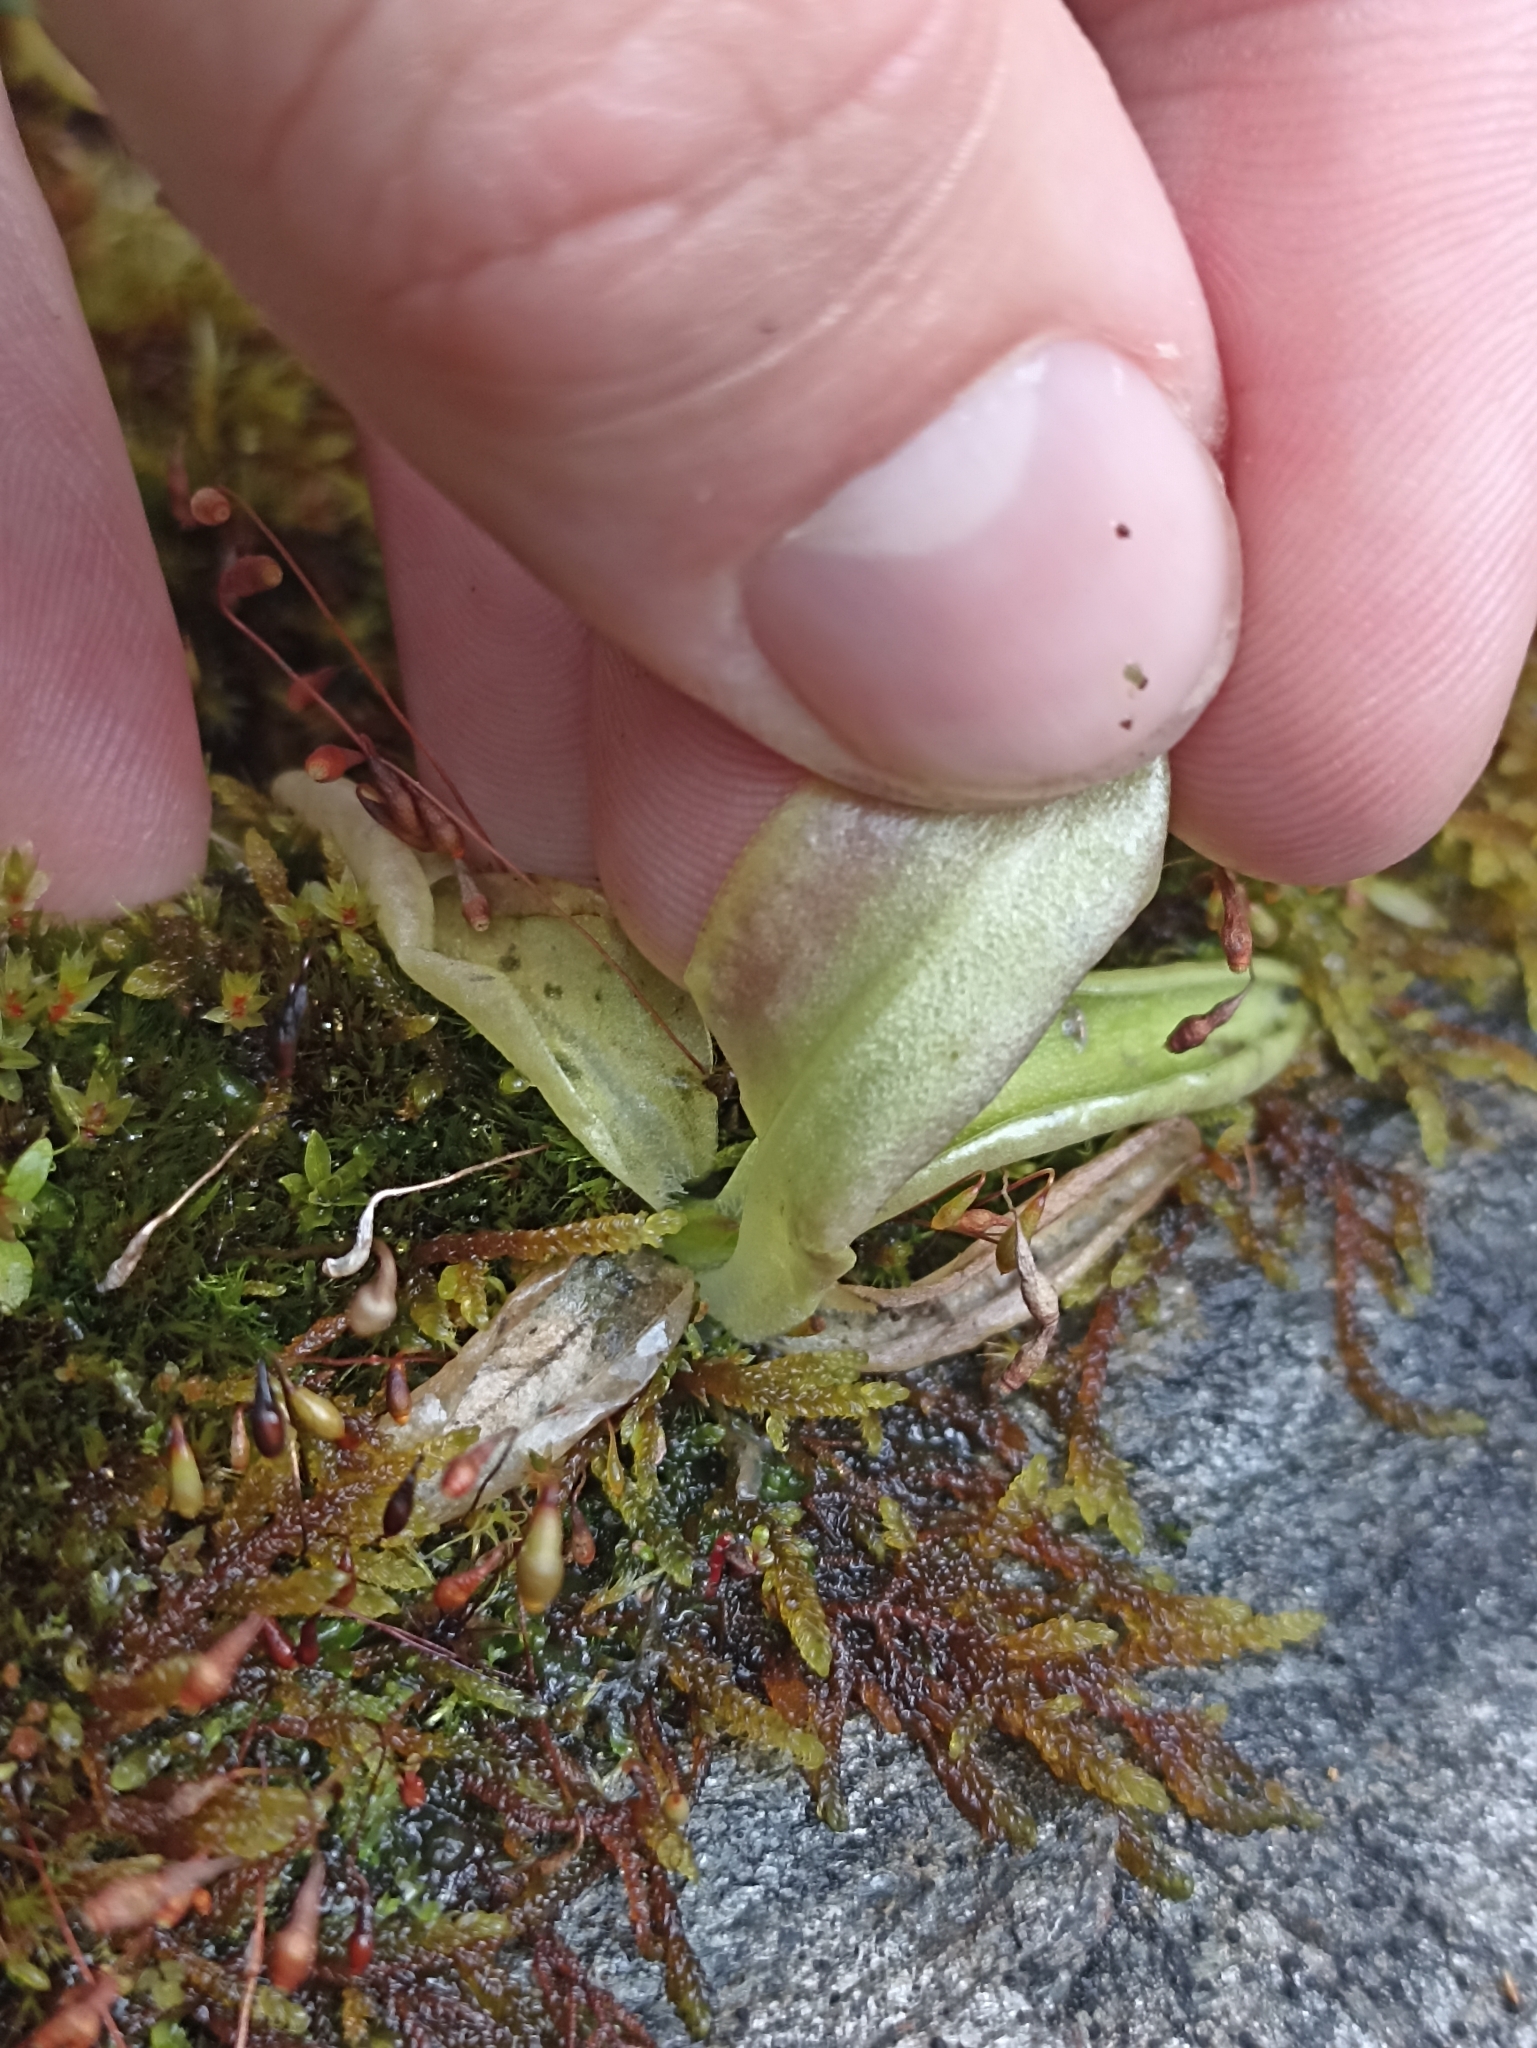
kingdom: Plantae
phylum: Tracheophyta
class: Magnoliopsida
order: Lamiales
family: Lentibulariaceae
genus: Pinguicula
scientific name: Pinguicula vulgaris
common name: Common butterwort
